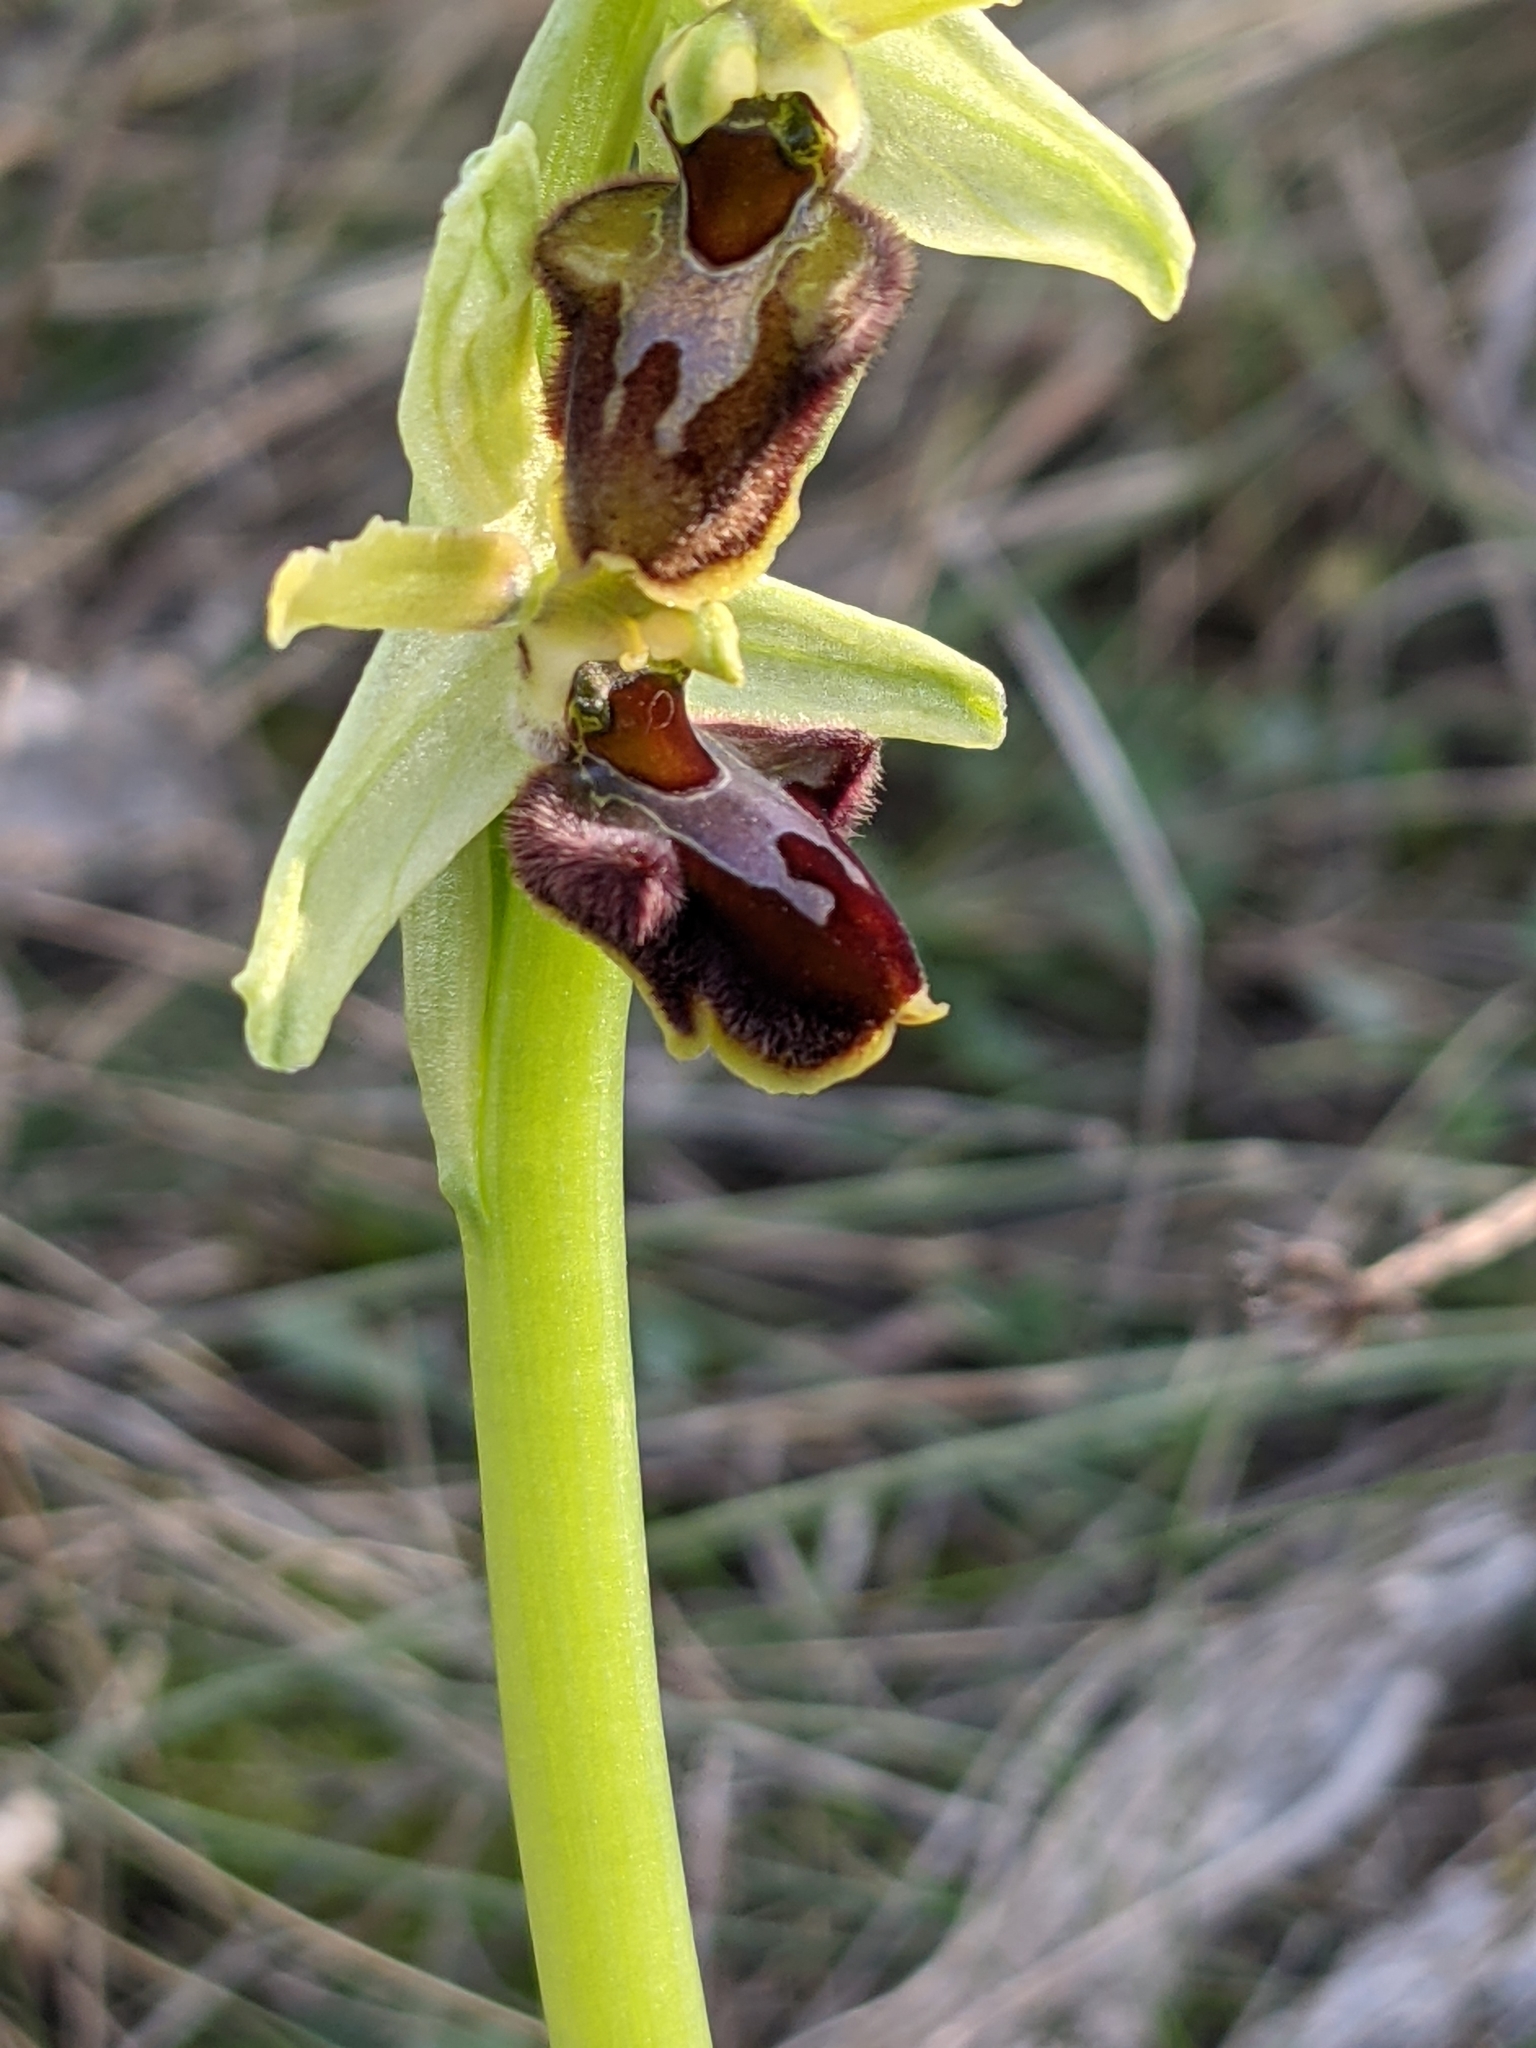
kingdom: Plantae
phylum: Tracheophyta
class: Liliopsida
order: Asparagales
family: Orchidaceae
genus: Ophrys
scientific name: Ophrys sphegodes
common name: Early spider-orchid
